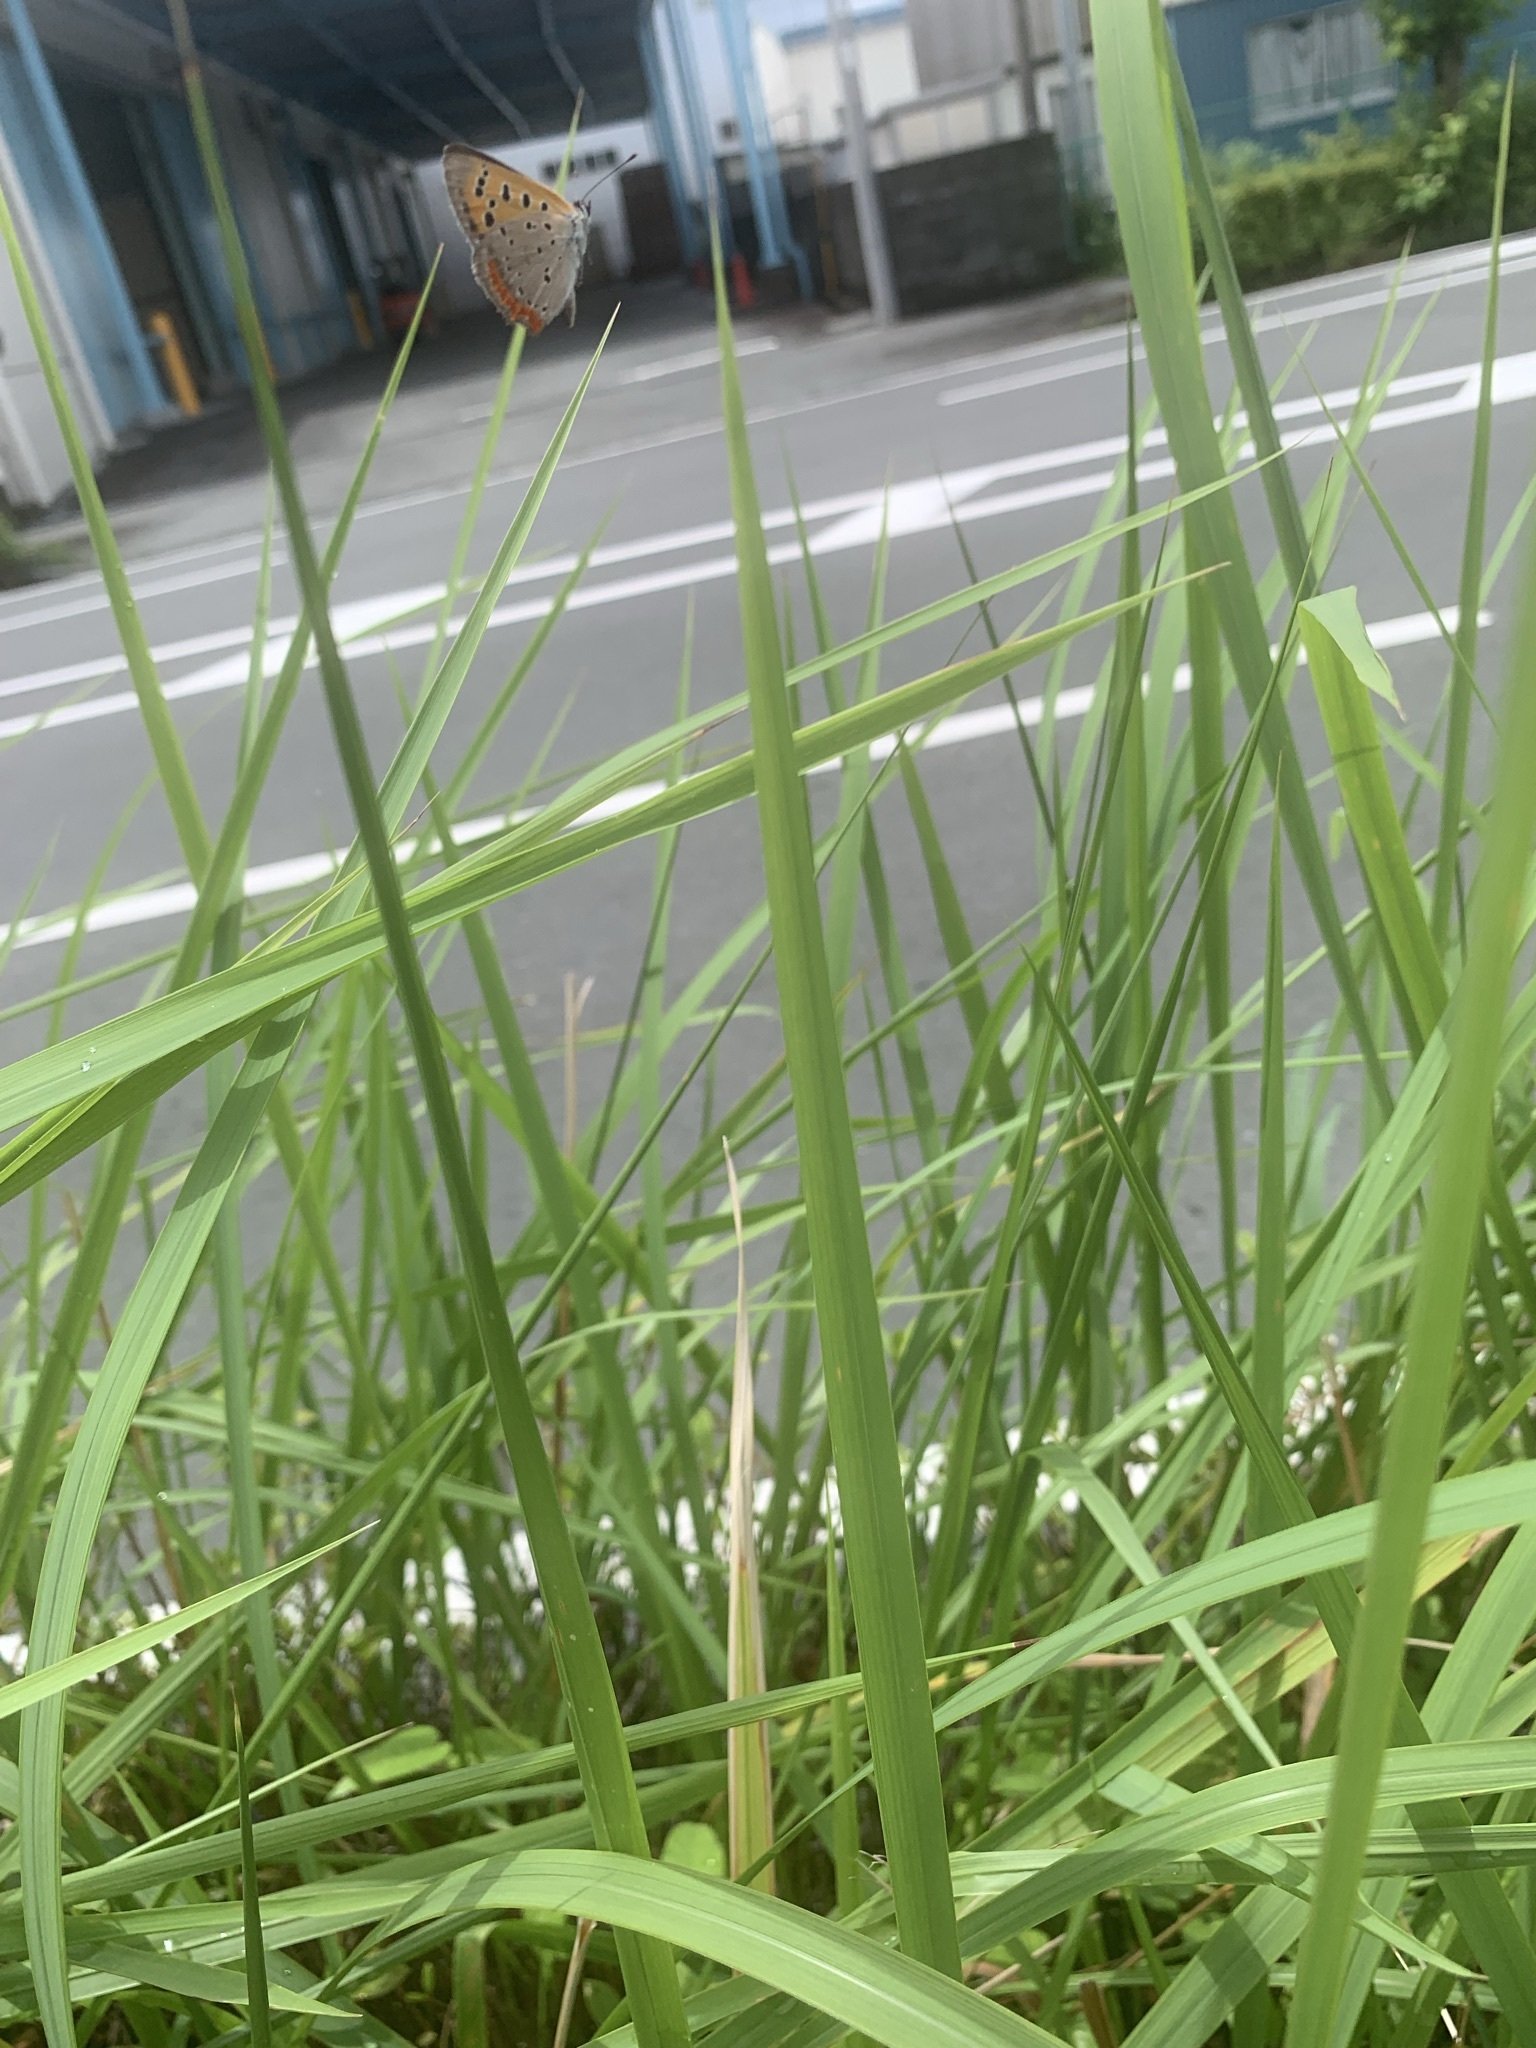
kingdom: Animalia
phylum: Arthropoda
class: Insecta
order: Lepidoptera
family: Lycaenidae
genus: Lycaena
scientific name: Lycaena phlaeas
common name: Small copper
